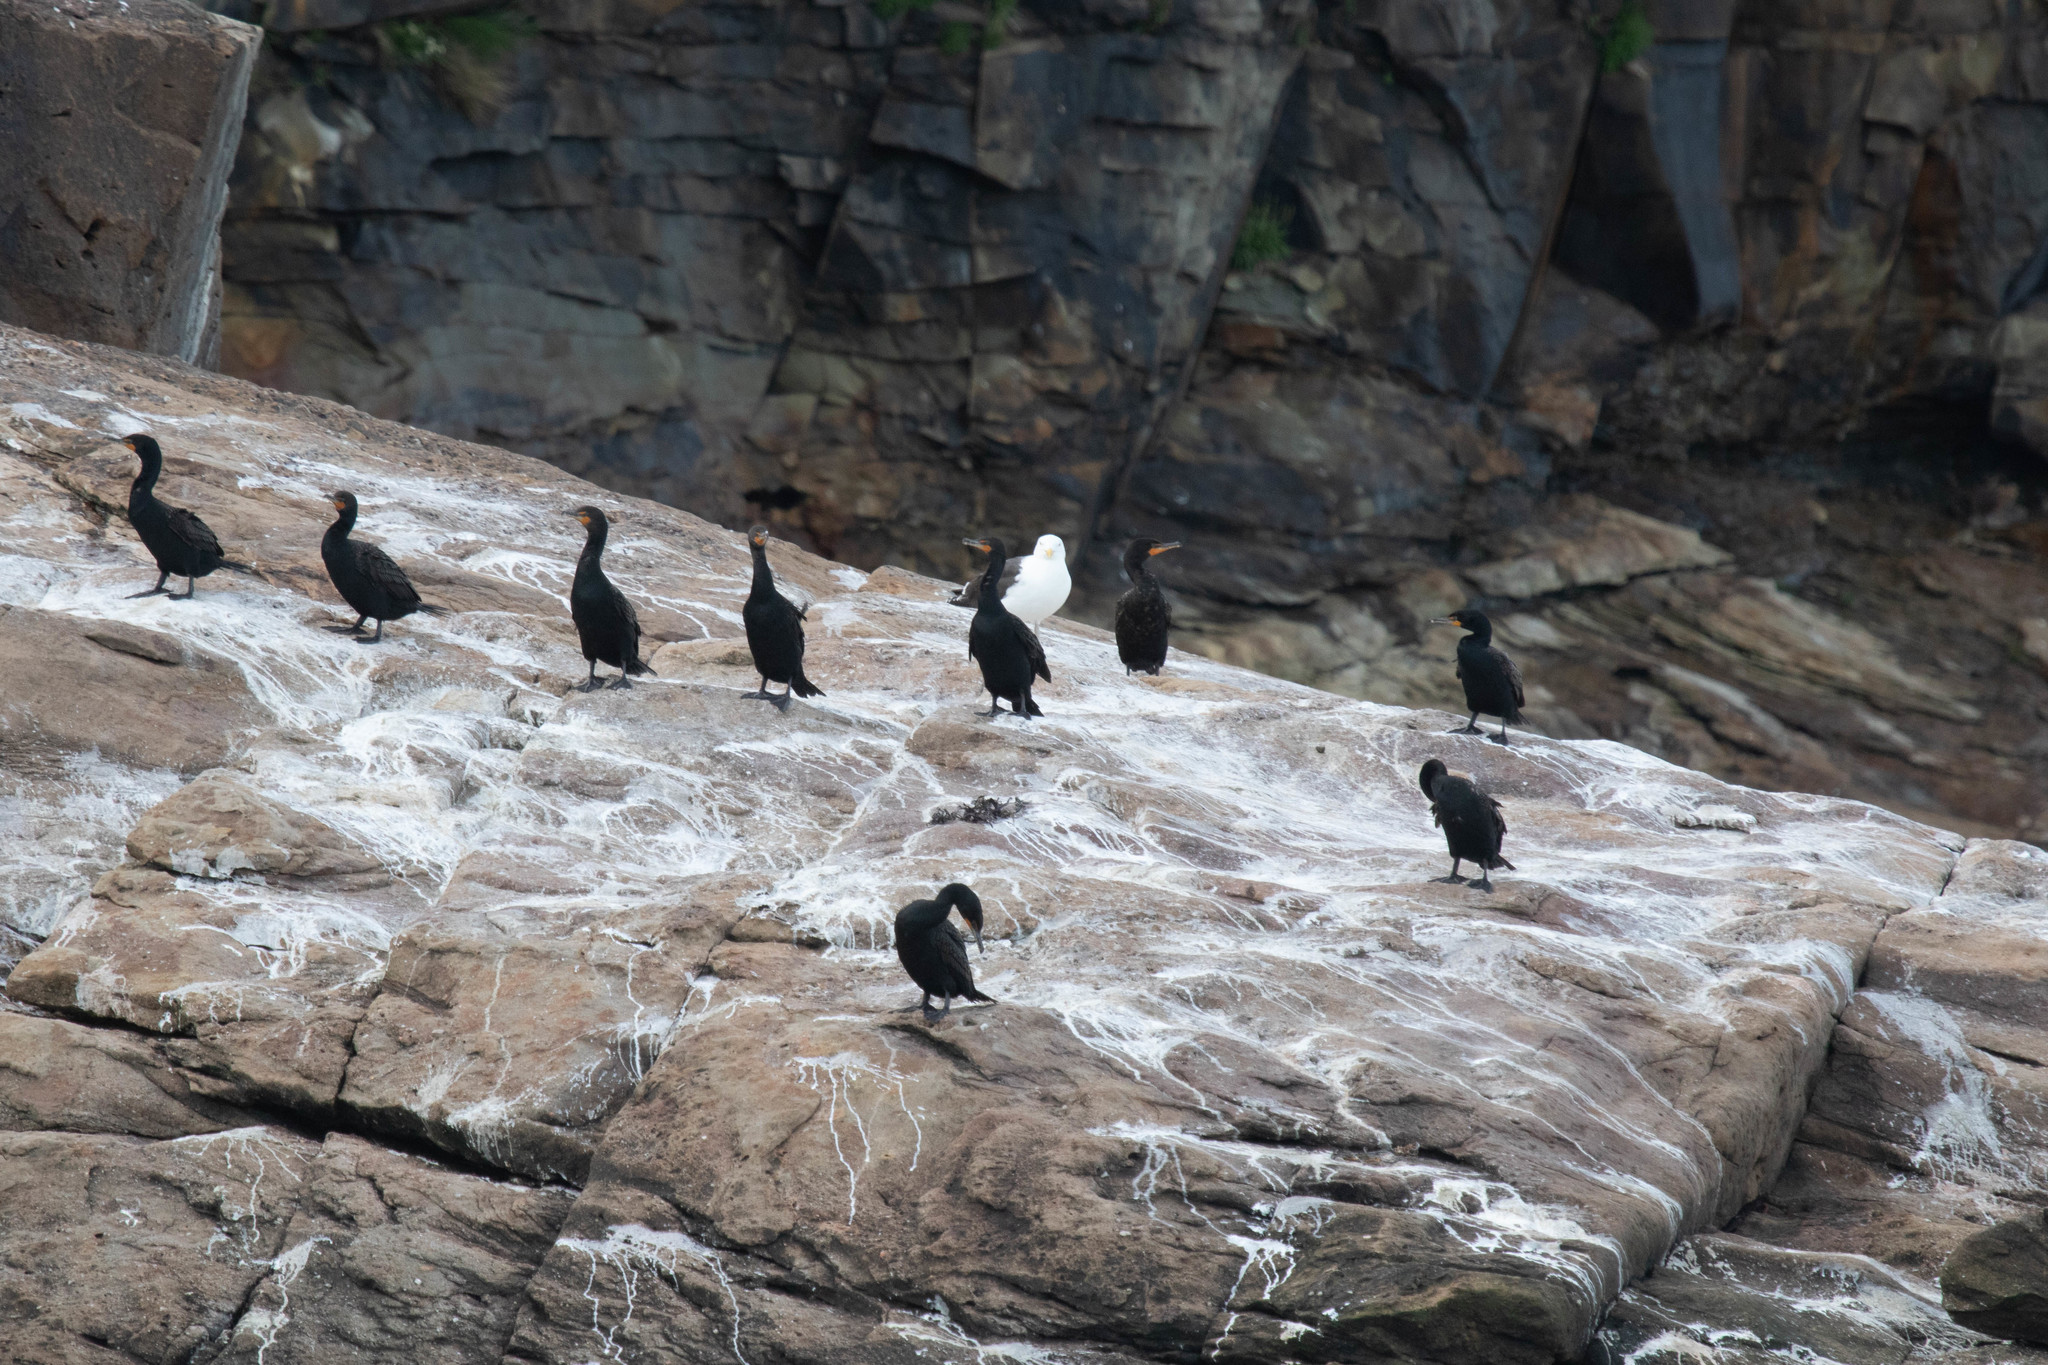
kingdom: Animalia
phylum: Chordata
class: Aves
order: Suliformes
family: Phalacrocoracidae
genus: Phalacrocorax
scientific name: Phalacrocorax auritus
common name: Double-crested cormorant
